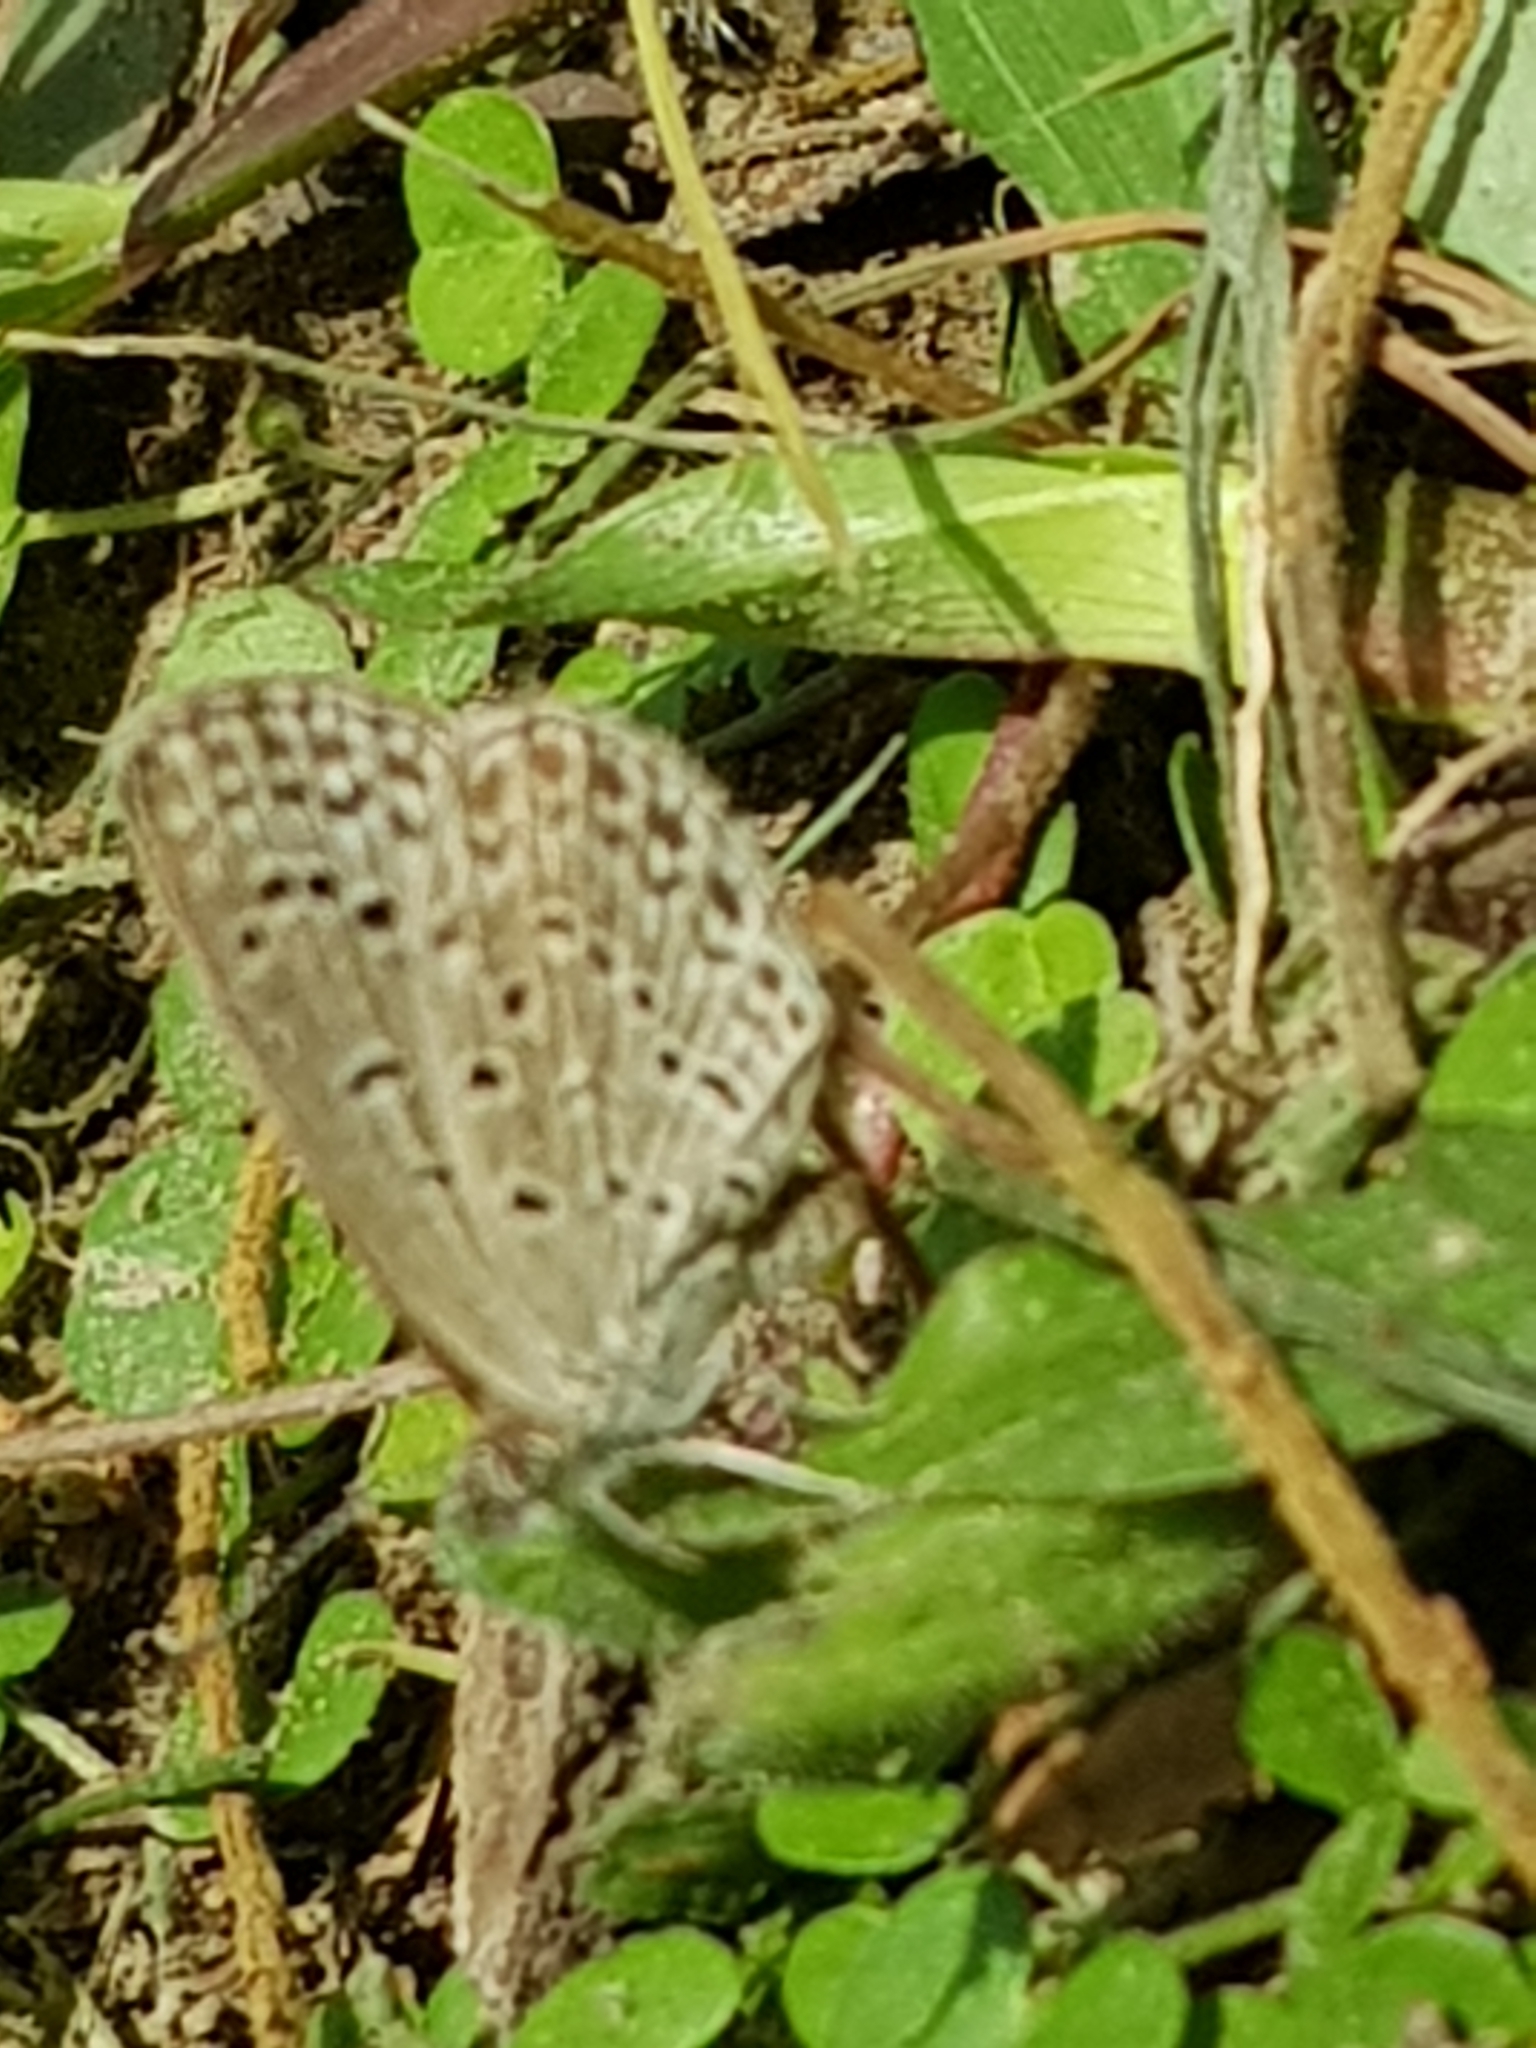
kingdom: Animalia
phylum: Arthropoda
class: Insecta
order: Lepidoptera
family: Lycaenidae
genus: Pseudozizeeria
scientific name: Pseudozizeeria maha
